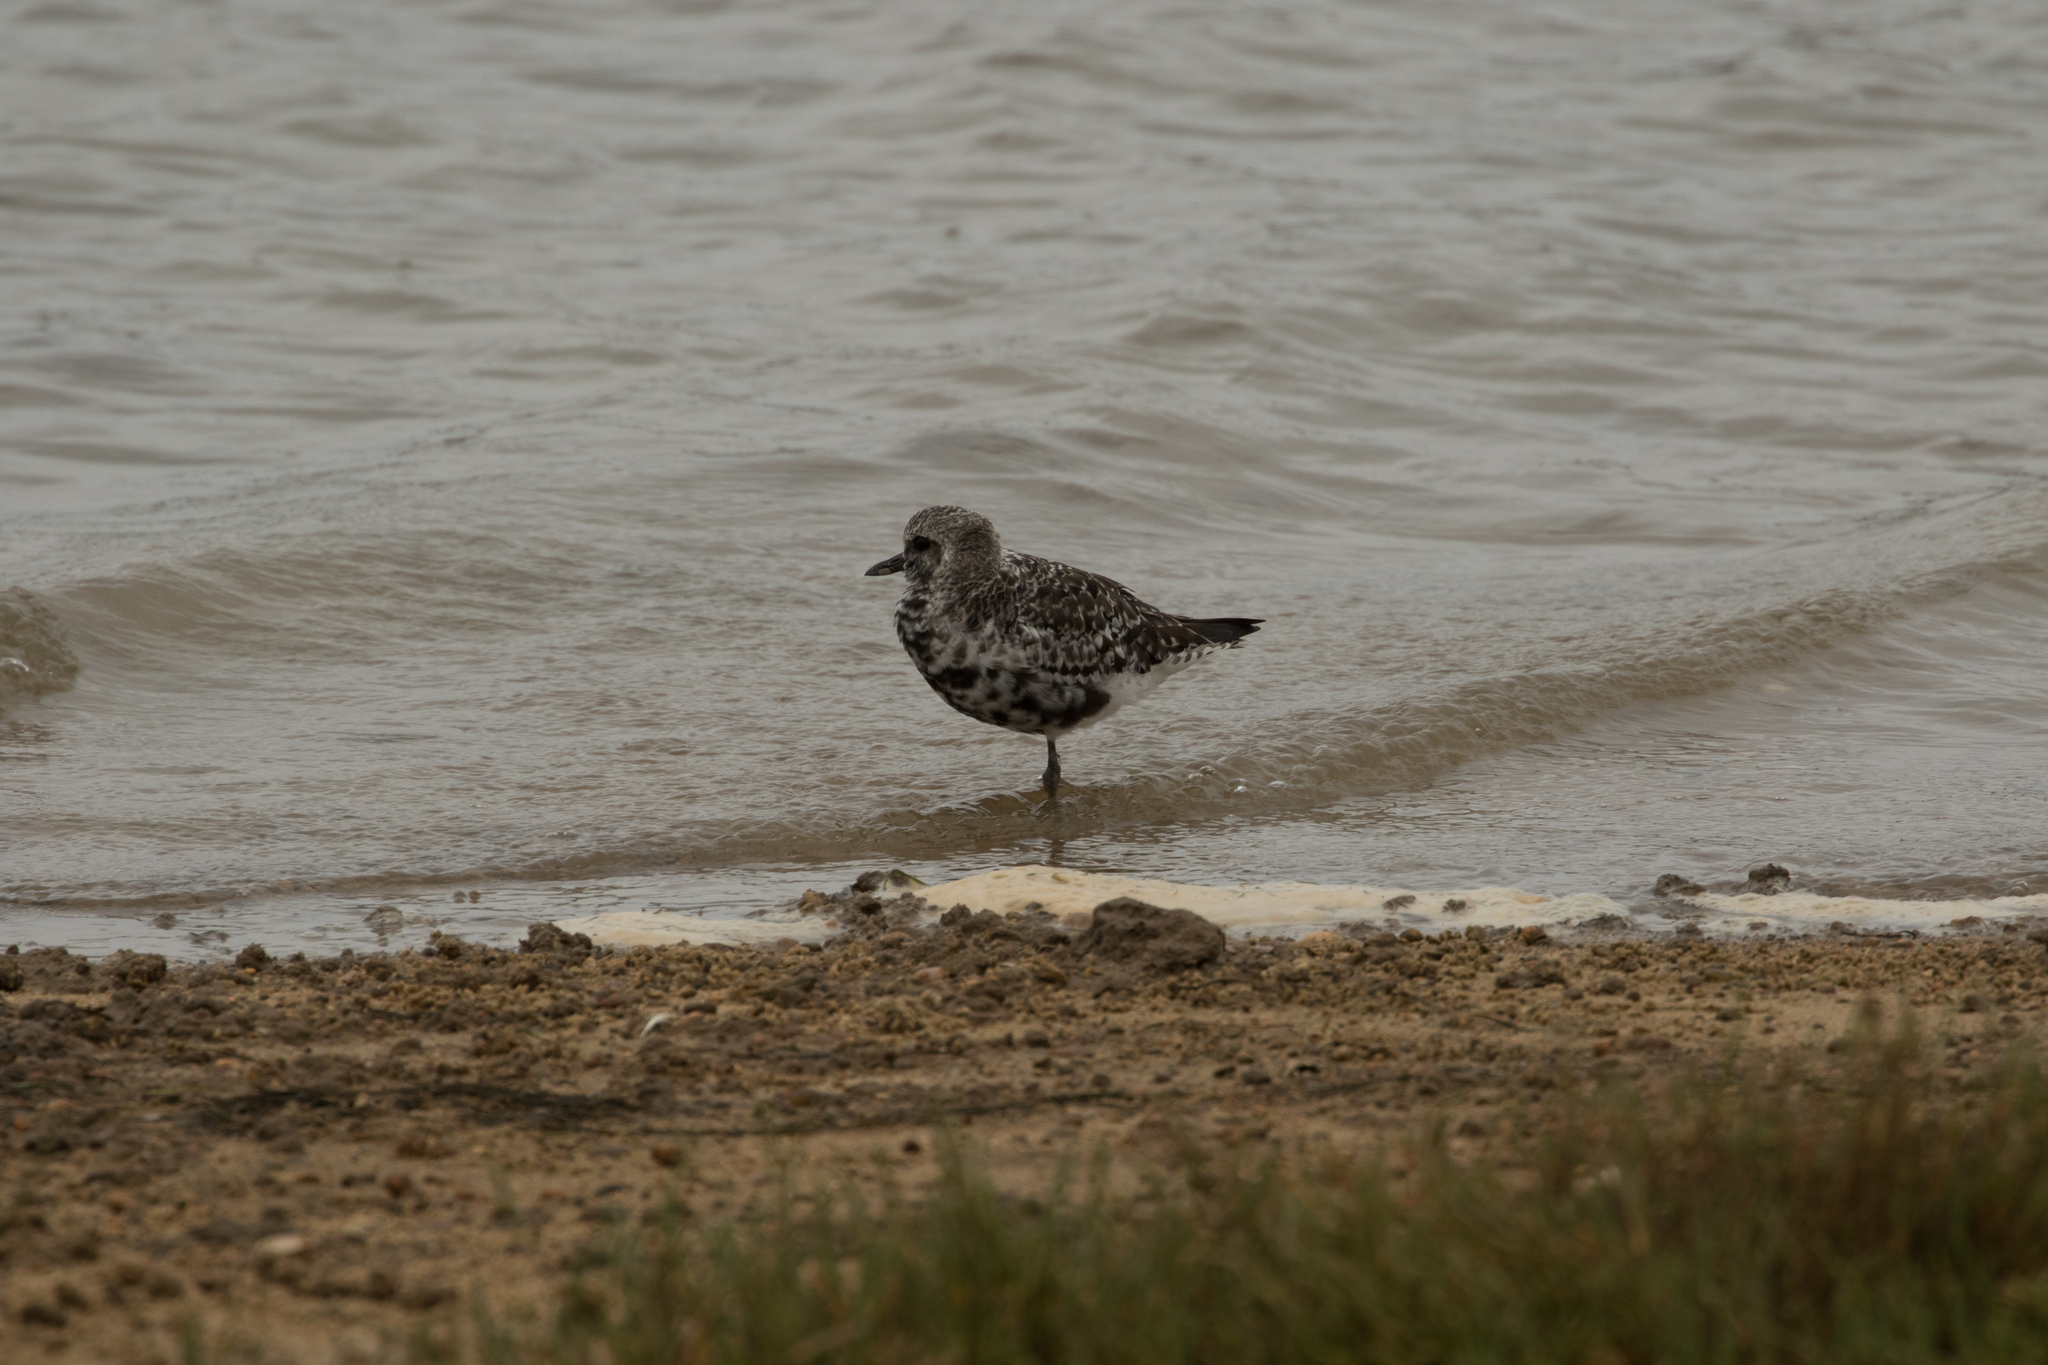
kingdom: Animalia
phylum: Chordata
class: Aves
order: Charadriiformes
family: Charadriidae
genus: Pluvialis
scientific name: Pluvialis squatarola
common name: Grey plover
